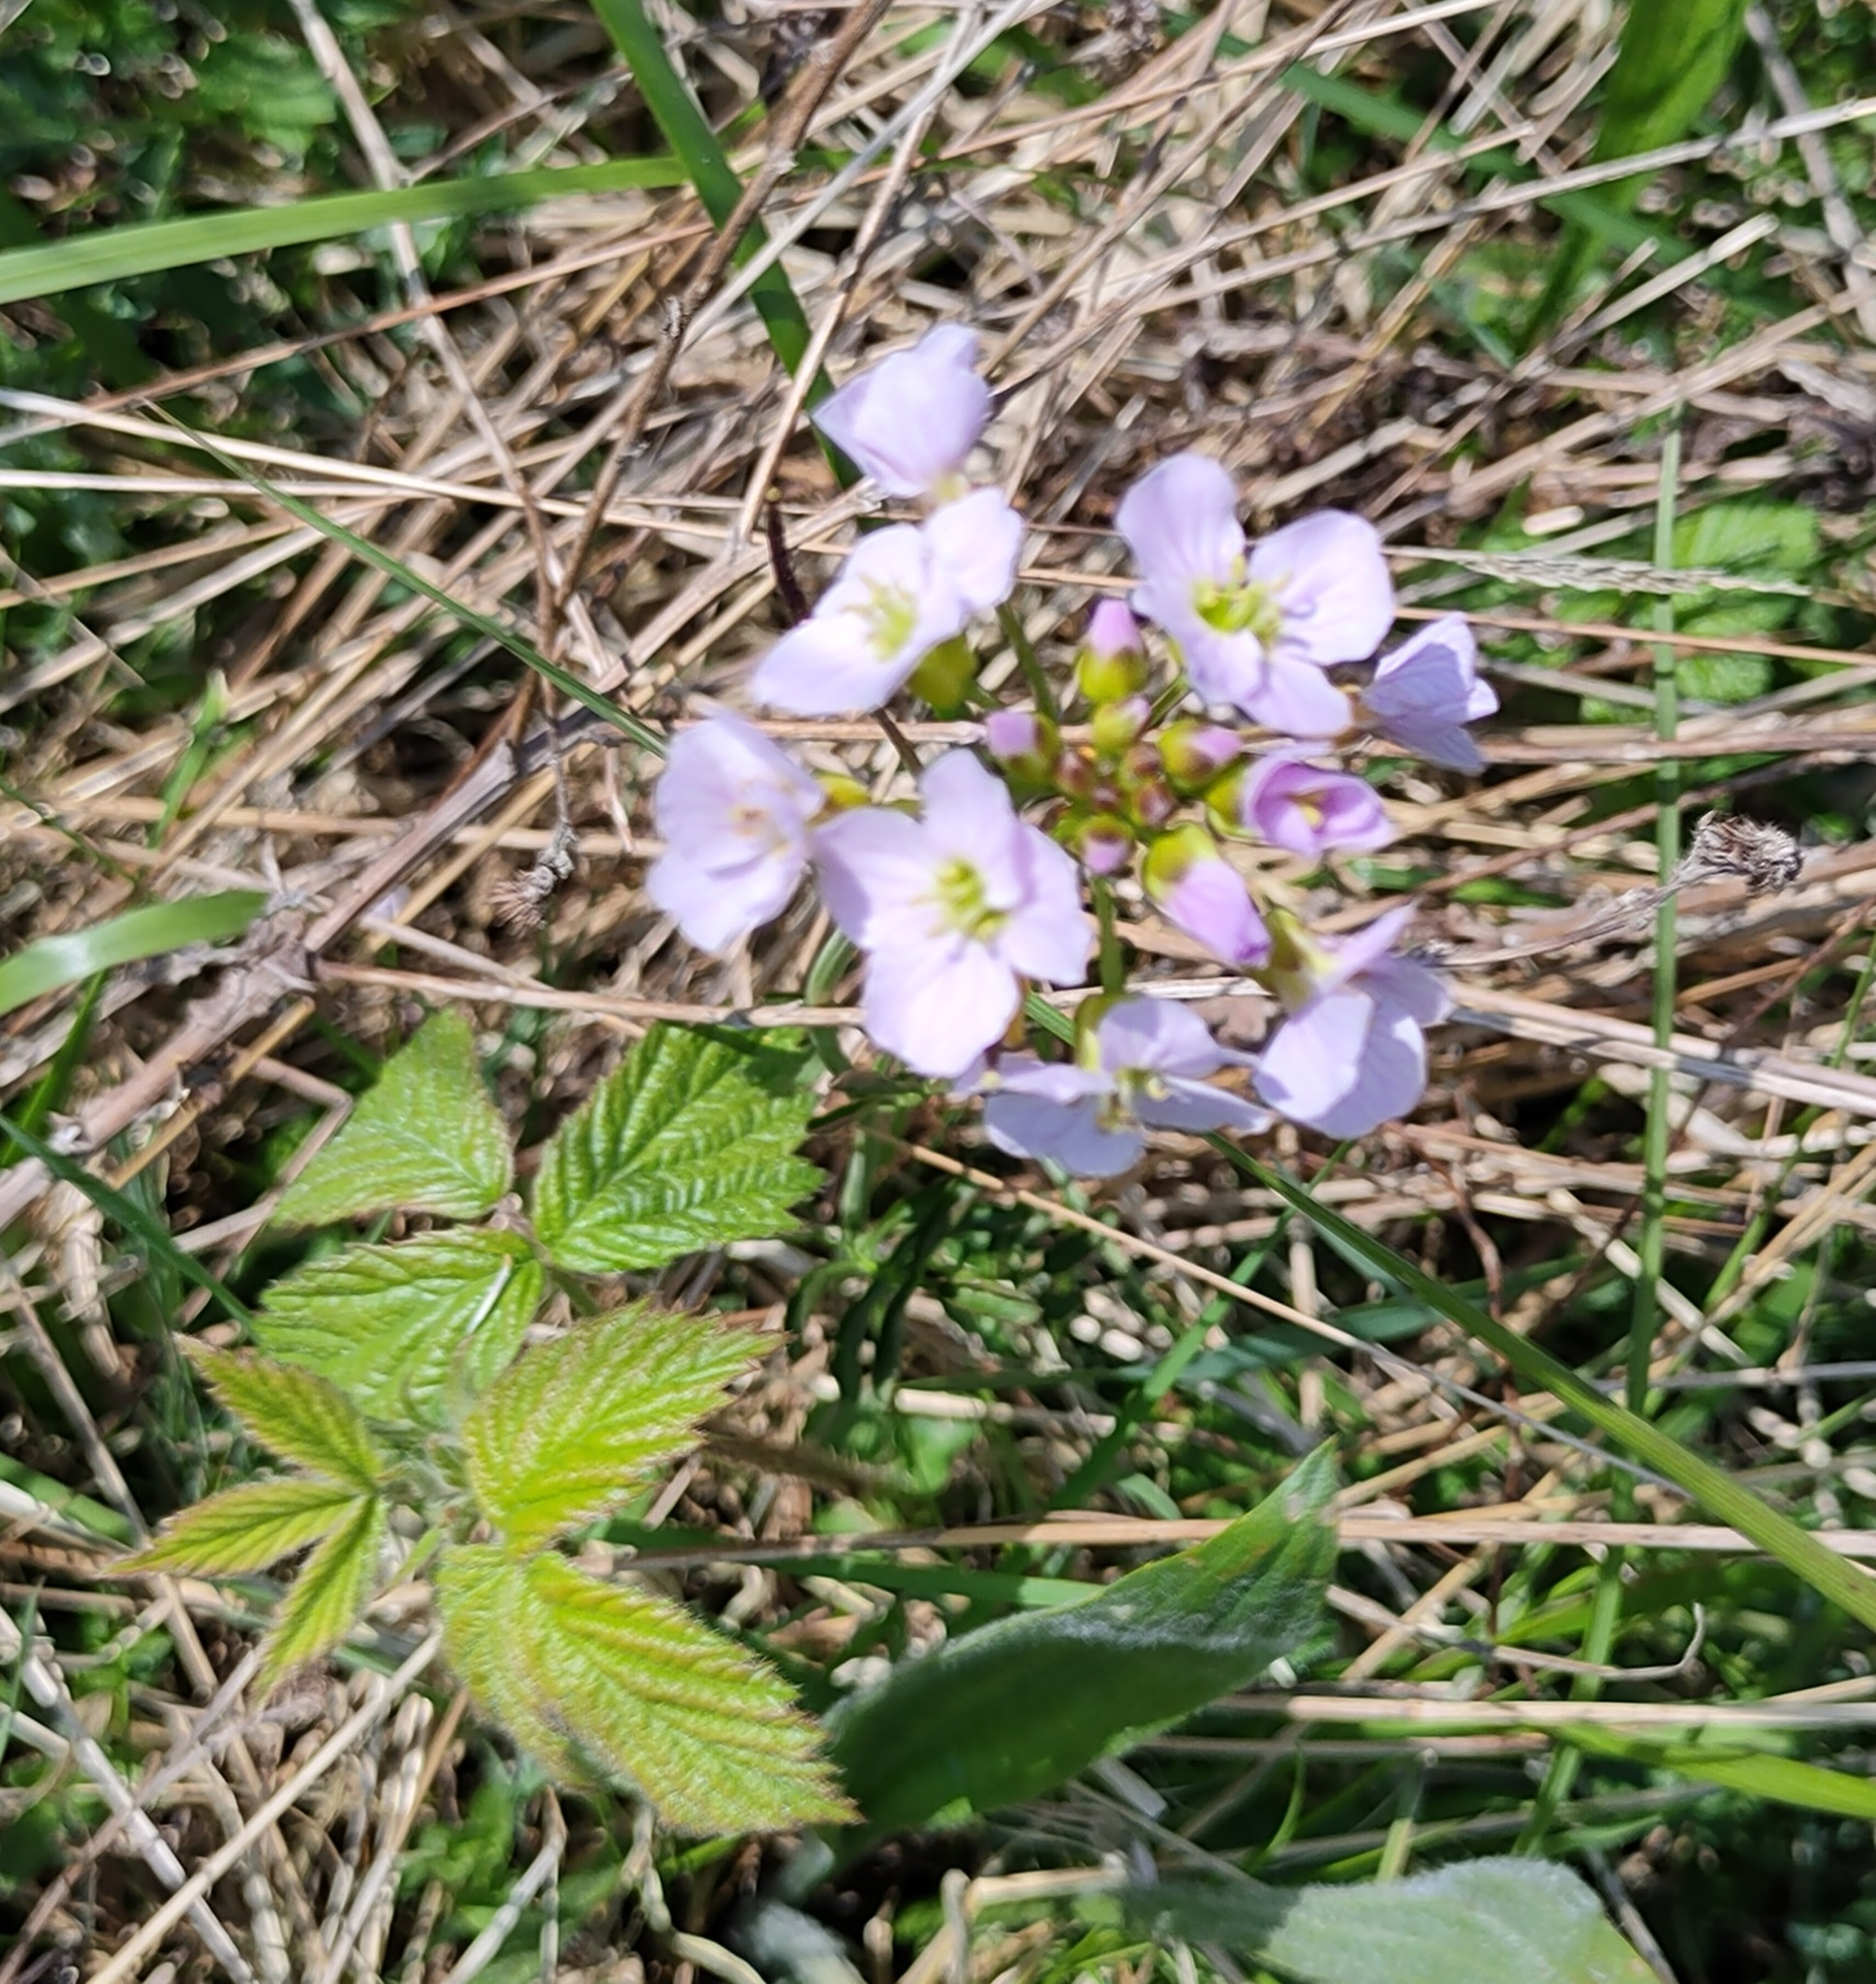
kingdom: Plantae
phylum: Tracheophyta
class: Magnoliopsida
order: Brassicales
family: Brassicaceae
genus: Cardamine
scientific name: Cardamine pratensis
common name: Cuckoo flower
